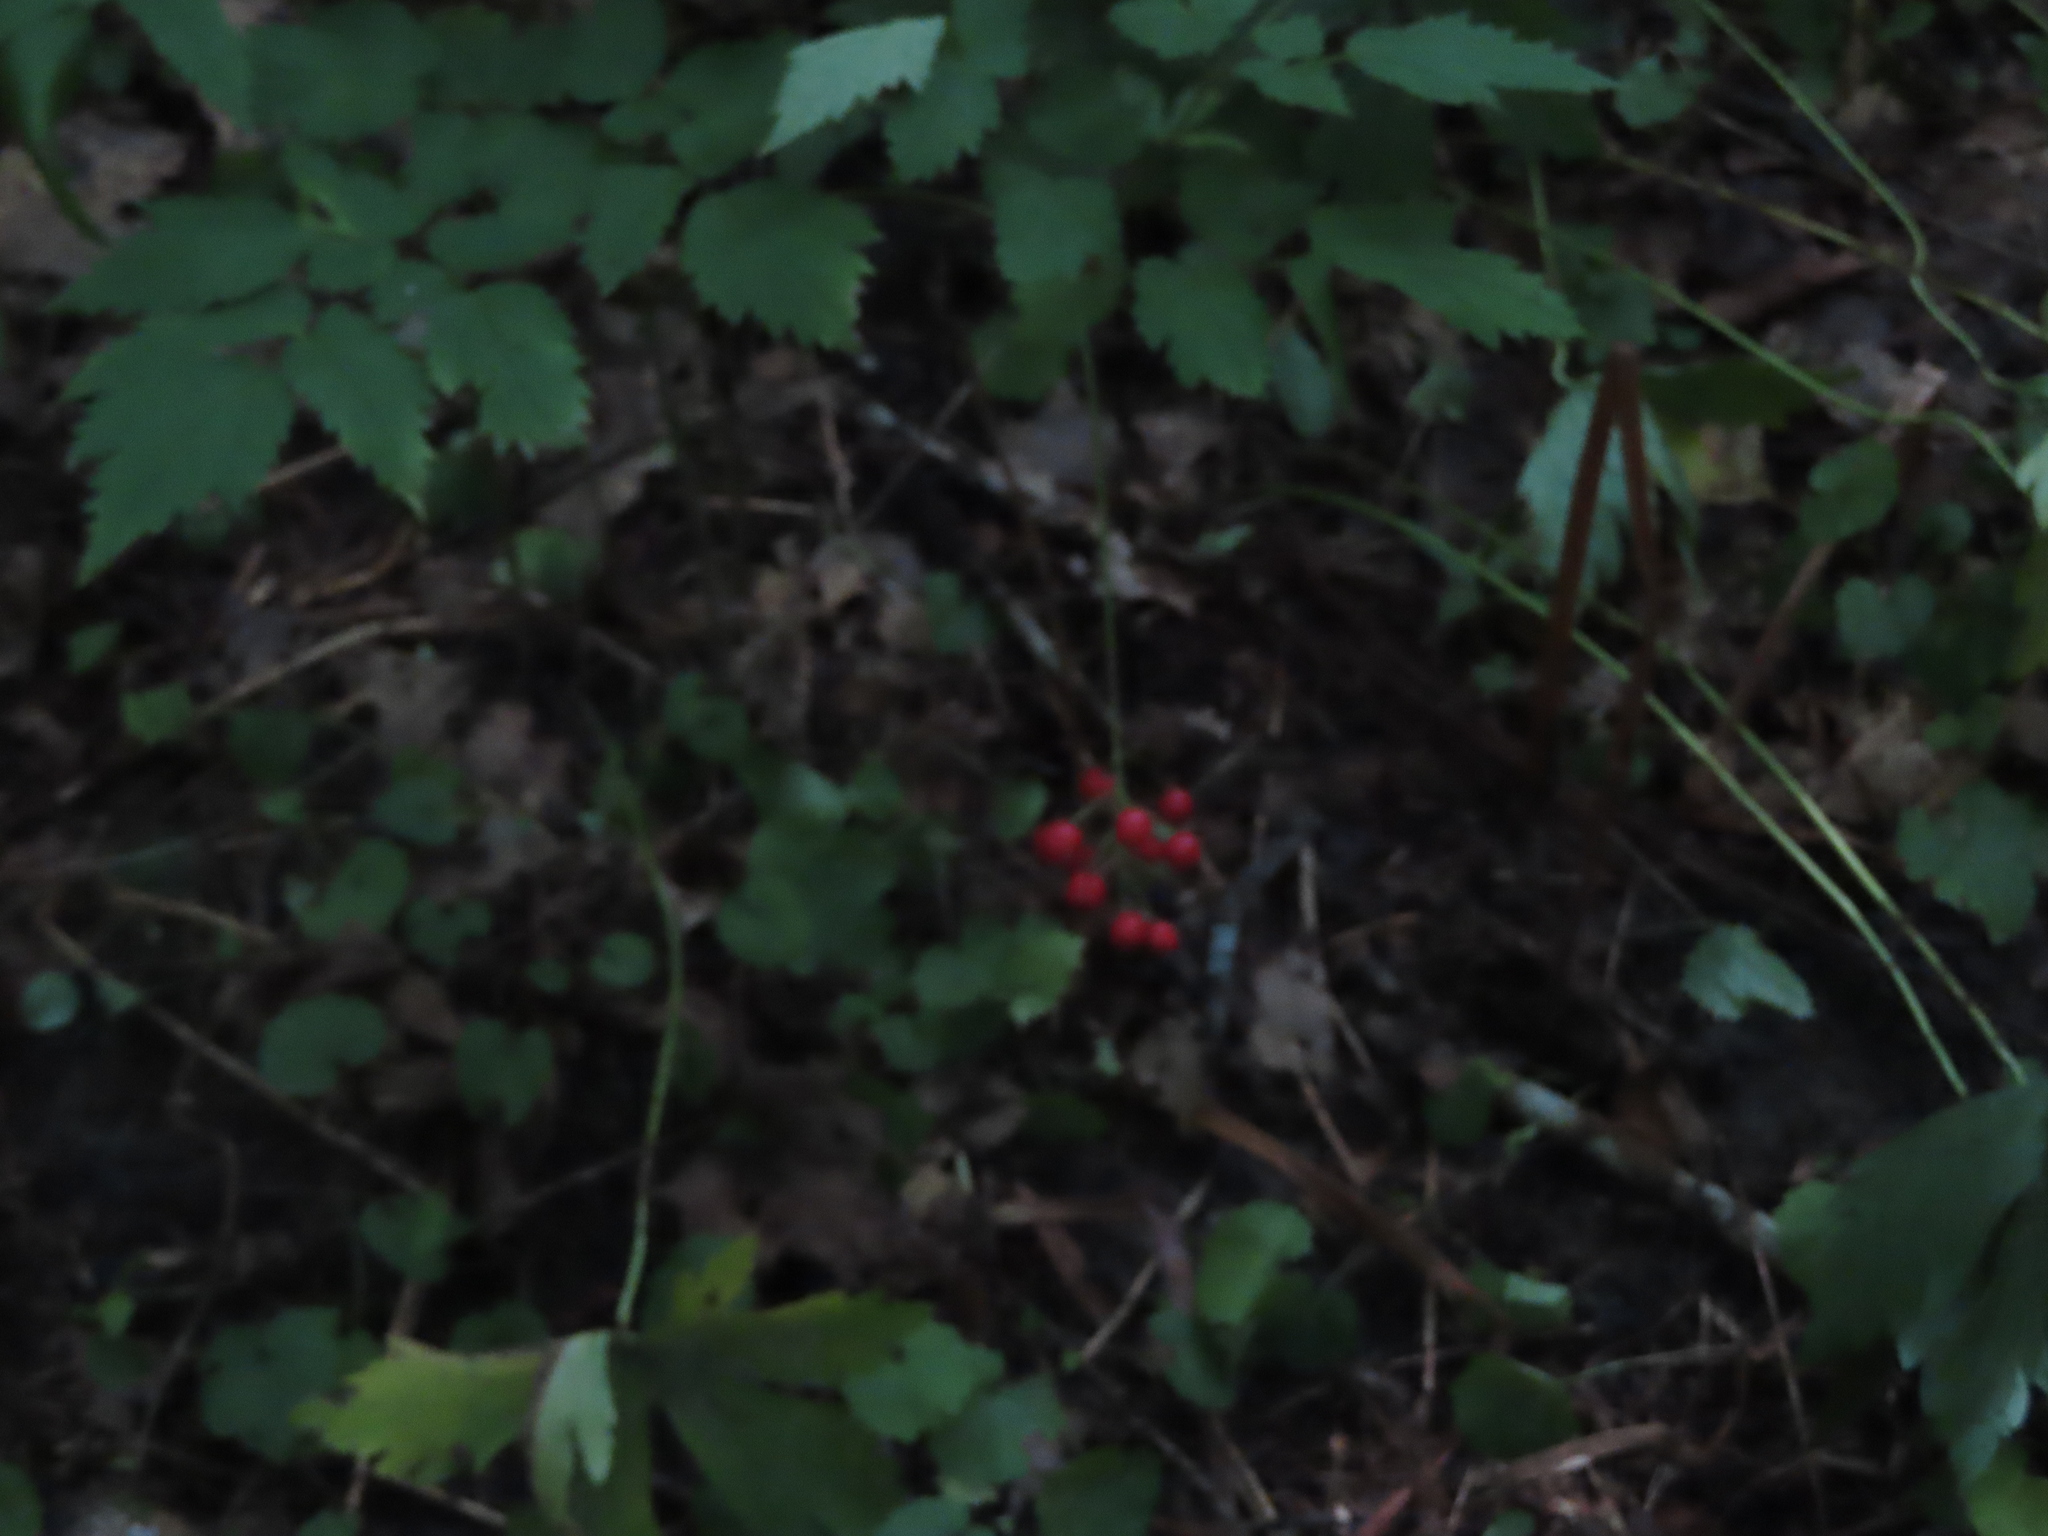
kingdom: Plantae
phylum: Tracheophyta
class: Magnoliopsida
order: Ranunculales
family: Ranunculaceae
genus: Actaea
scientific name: Actaea rubra
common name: Red baneberry
